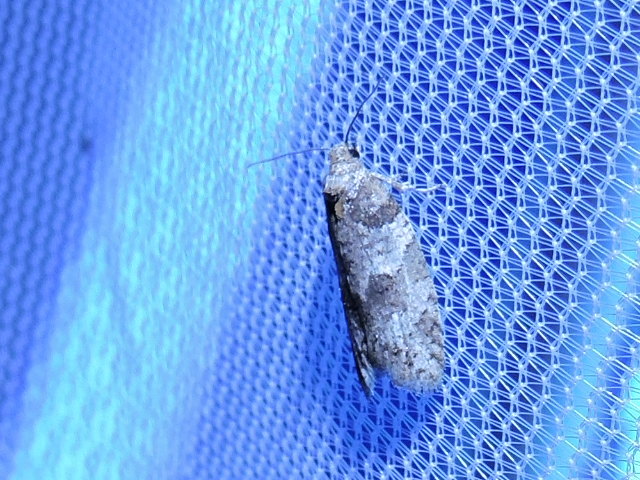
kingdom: Animalia
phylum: Arthropoda
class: Insecta
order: Lepidoptera
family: Tortricidae
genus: Decodes
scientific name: Decodes basiplagana
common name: Gray-marked tortricid
